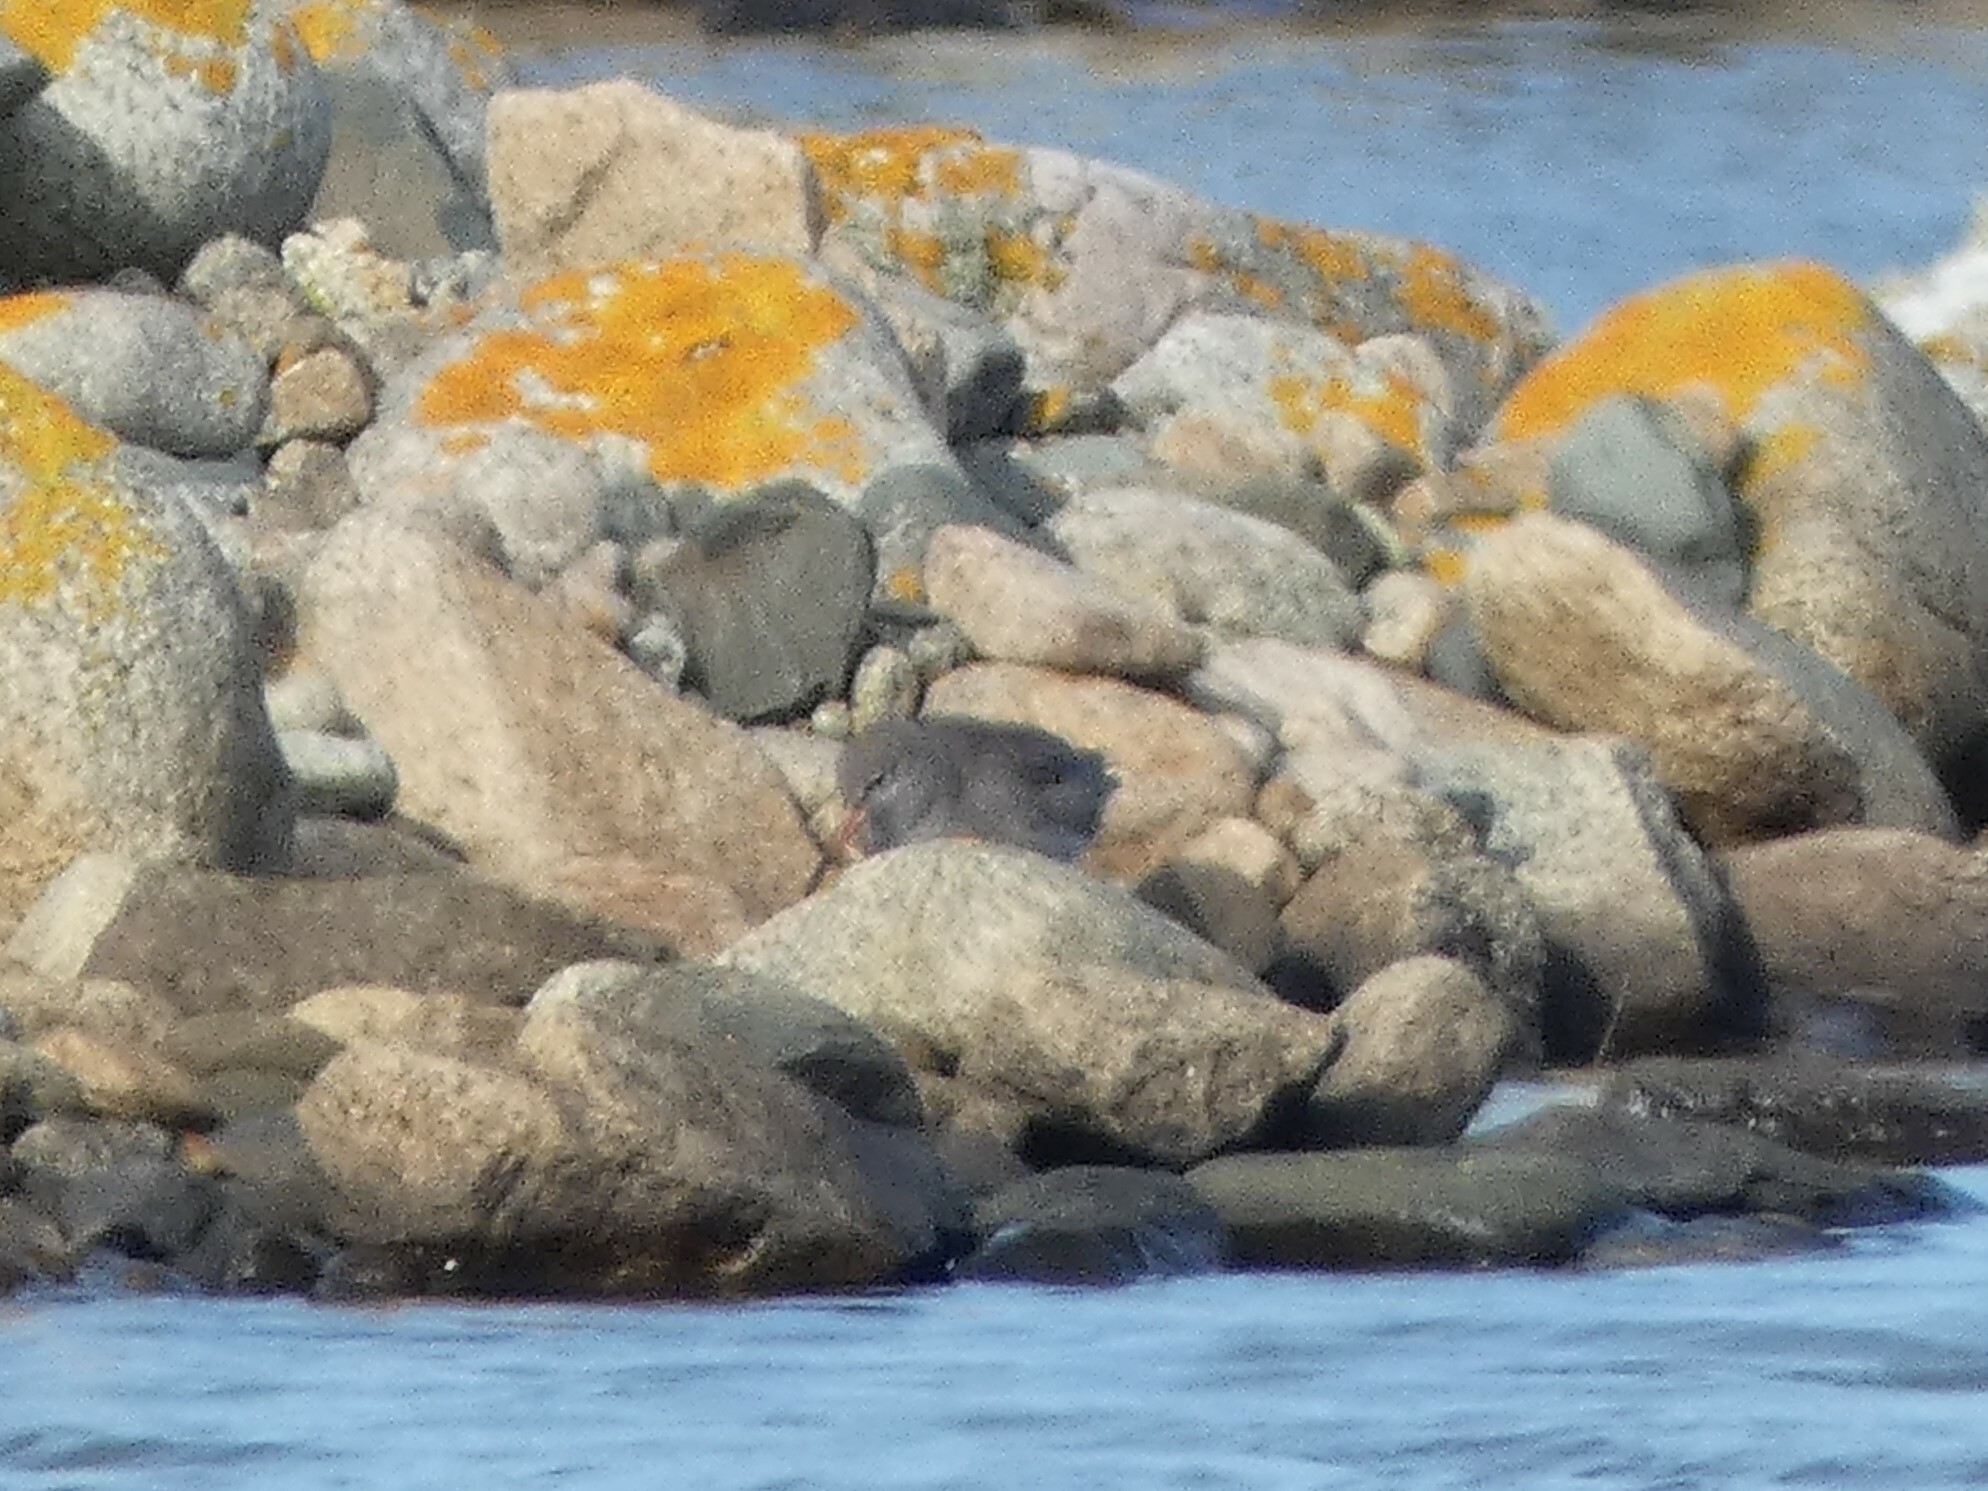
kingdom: Animalia
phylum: Chordata
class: Aves
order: Charadriiformes
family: Scolopacidae
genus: Tringa
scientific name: Tringa totanus
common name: Common redshank
